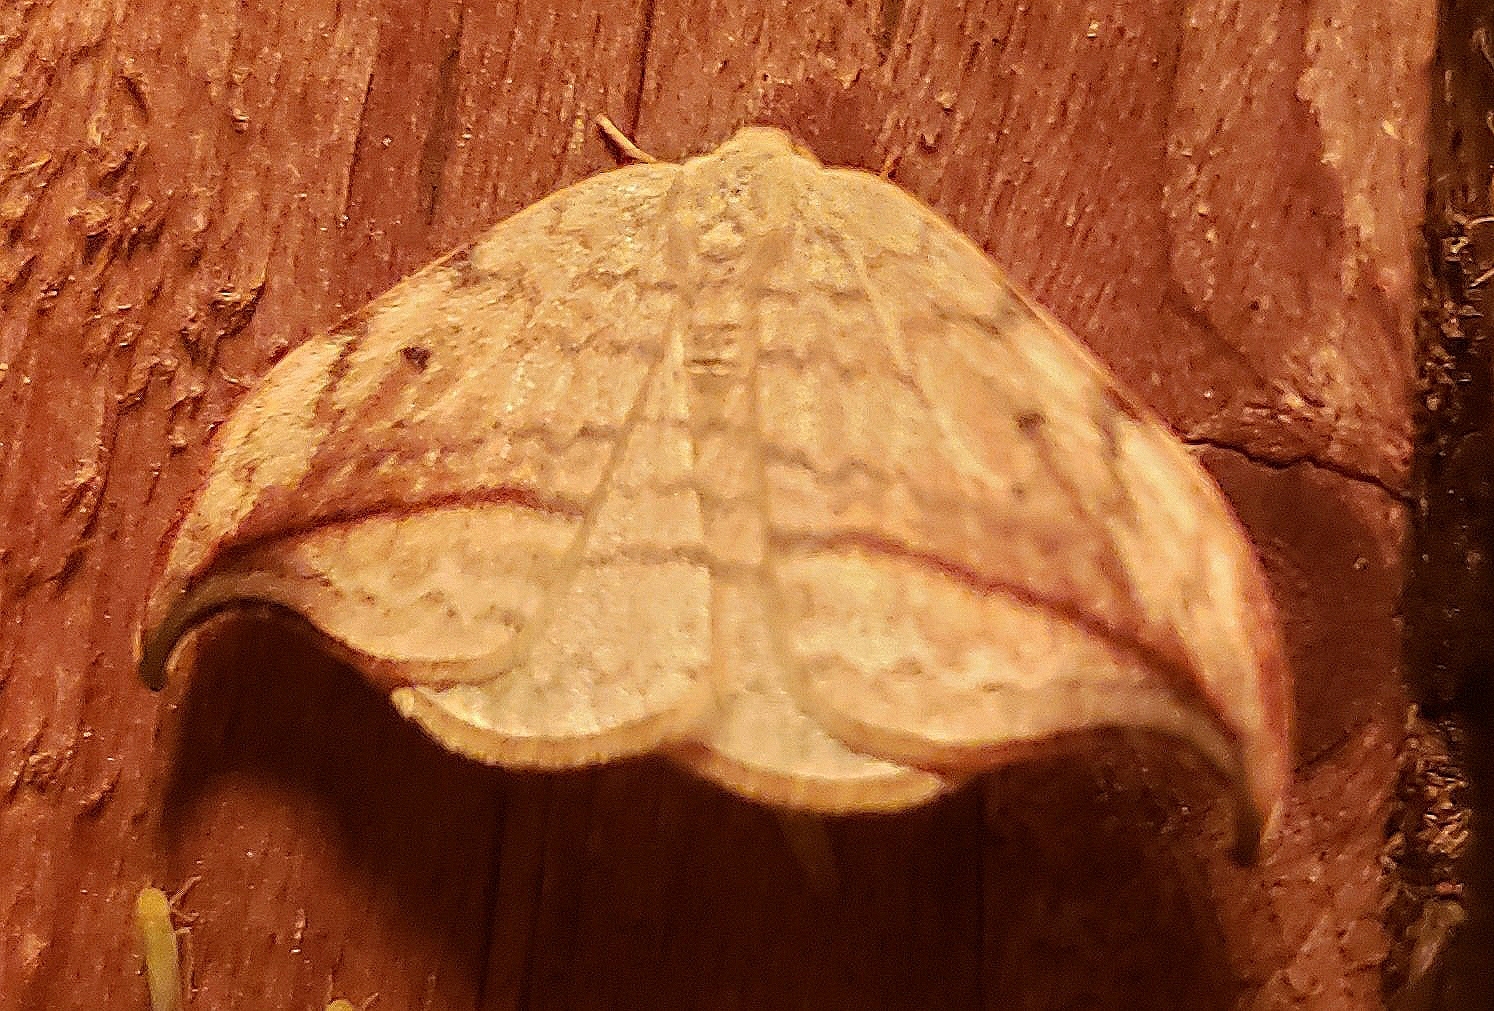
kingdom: Animalia
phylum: Arthropoda
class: Insecta
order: Lepidoptera
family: Drepanidae
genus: Drepana
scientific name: Drepana arcuata
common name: Arched hooktip moth
